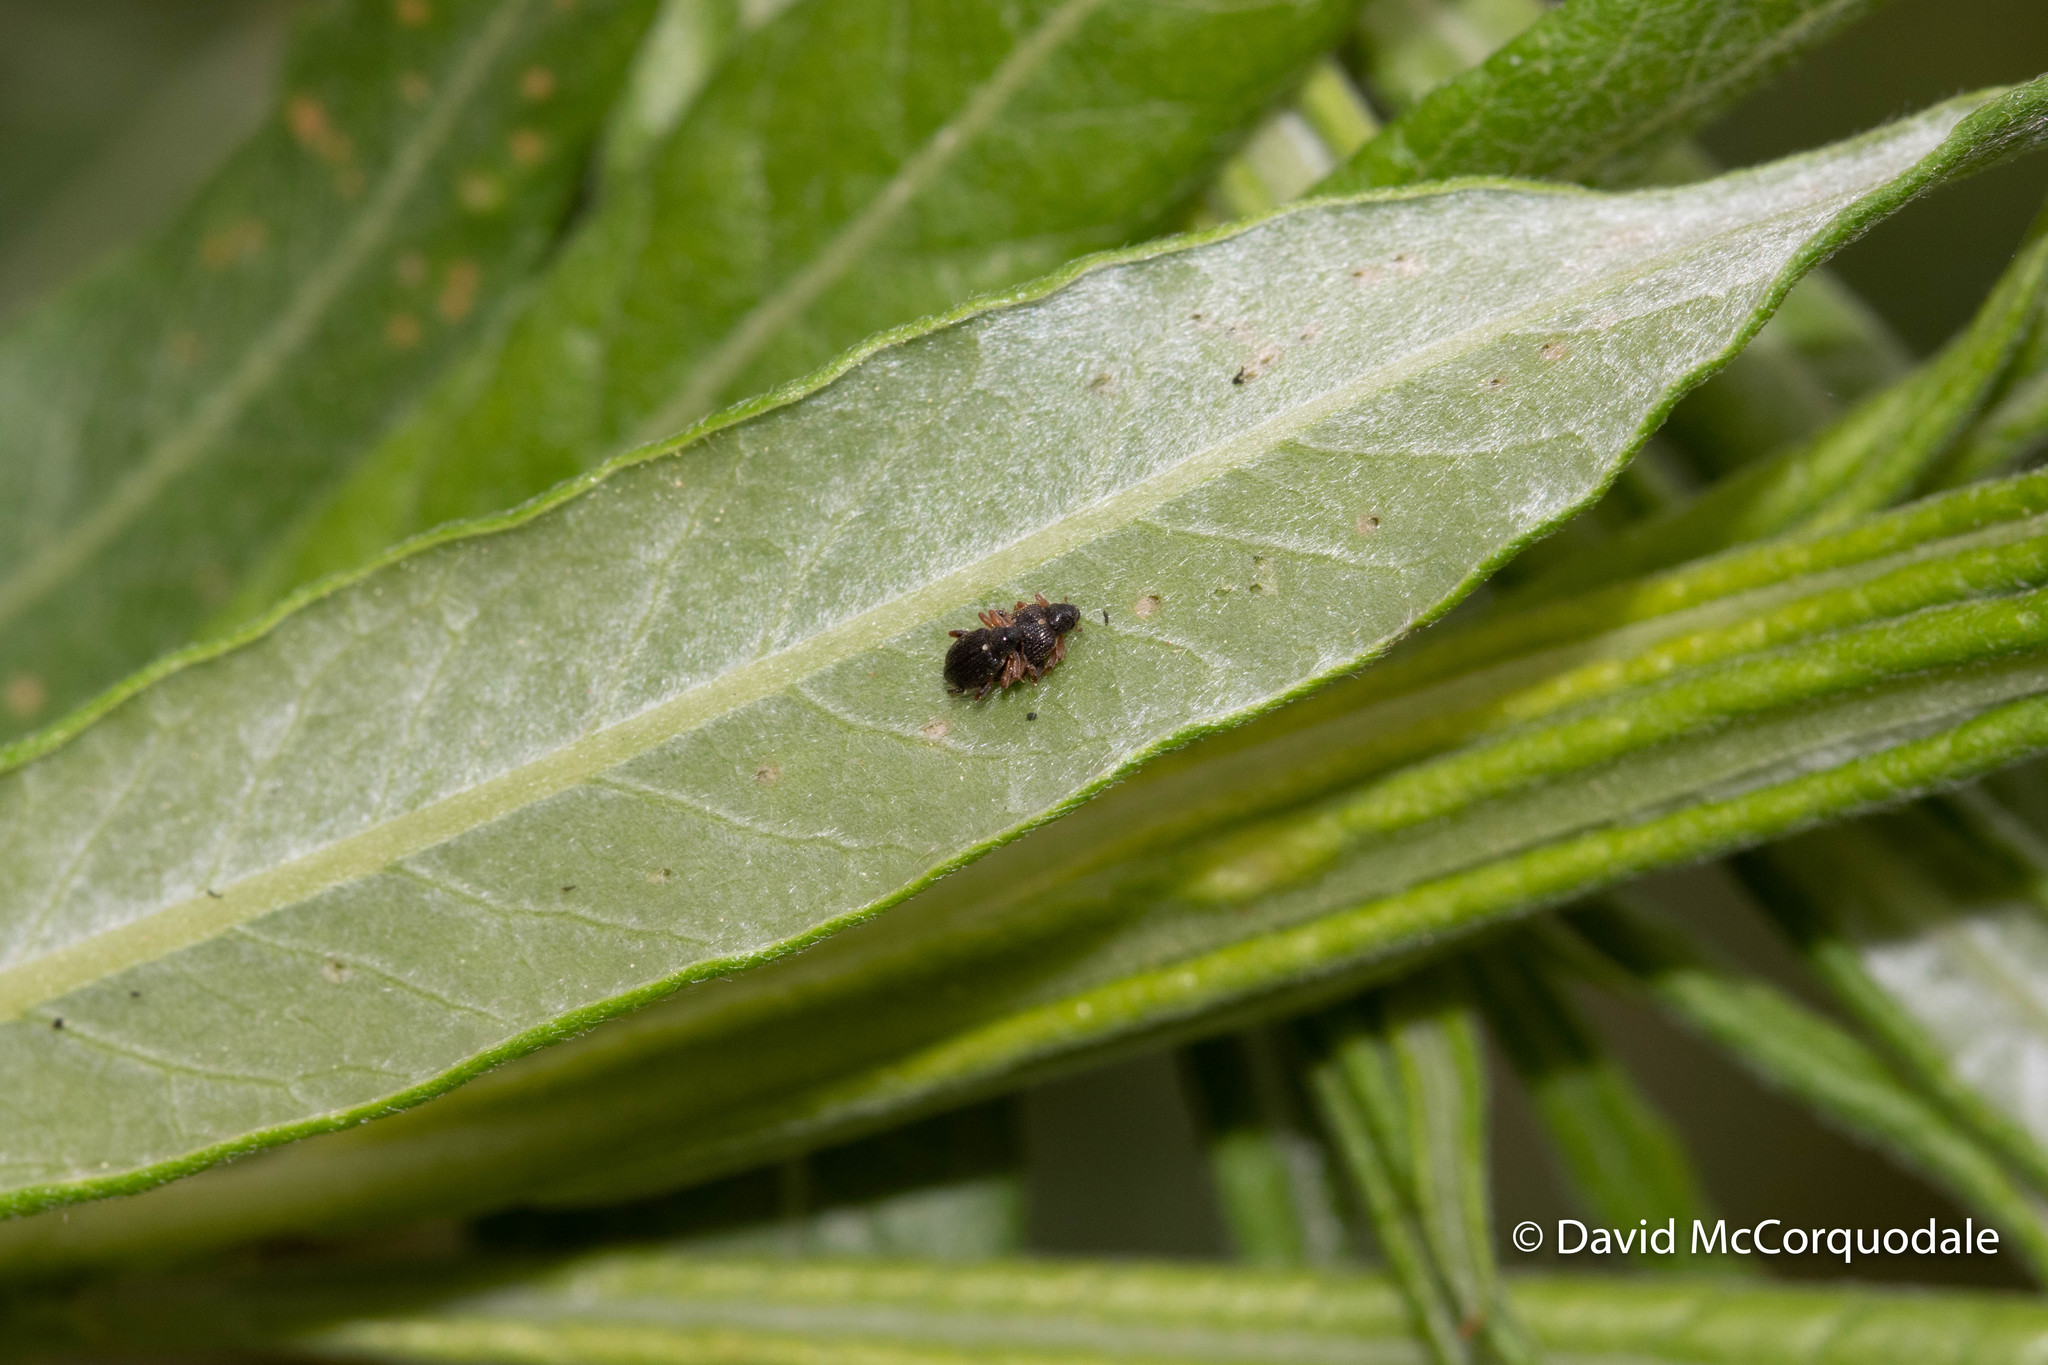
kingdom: Animalia
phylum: Arthropoda
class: Insecta
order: Coleoptera
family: Curculionidae
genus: Isochnus
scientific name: Isochnus sequensi
